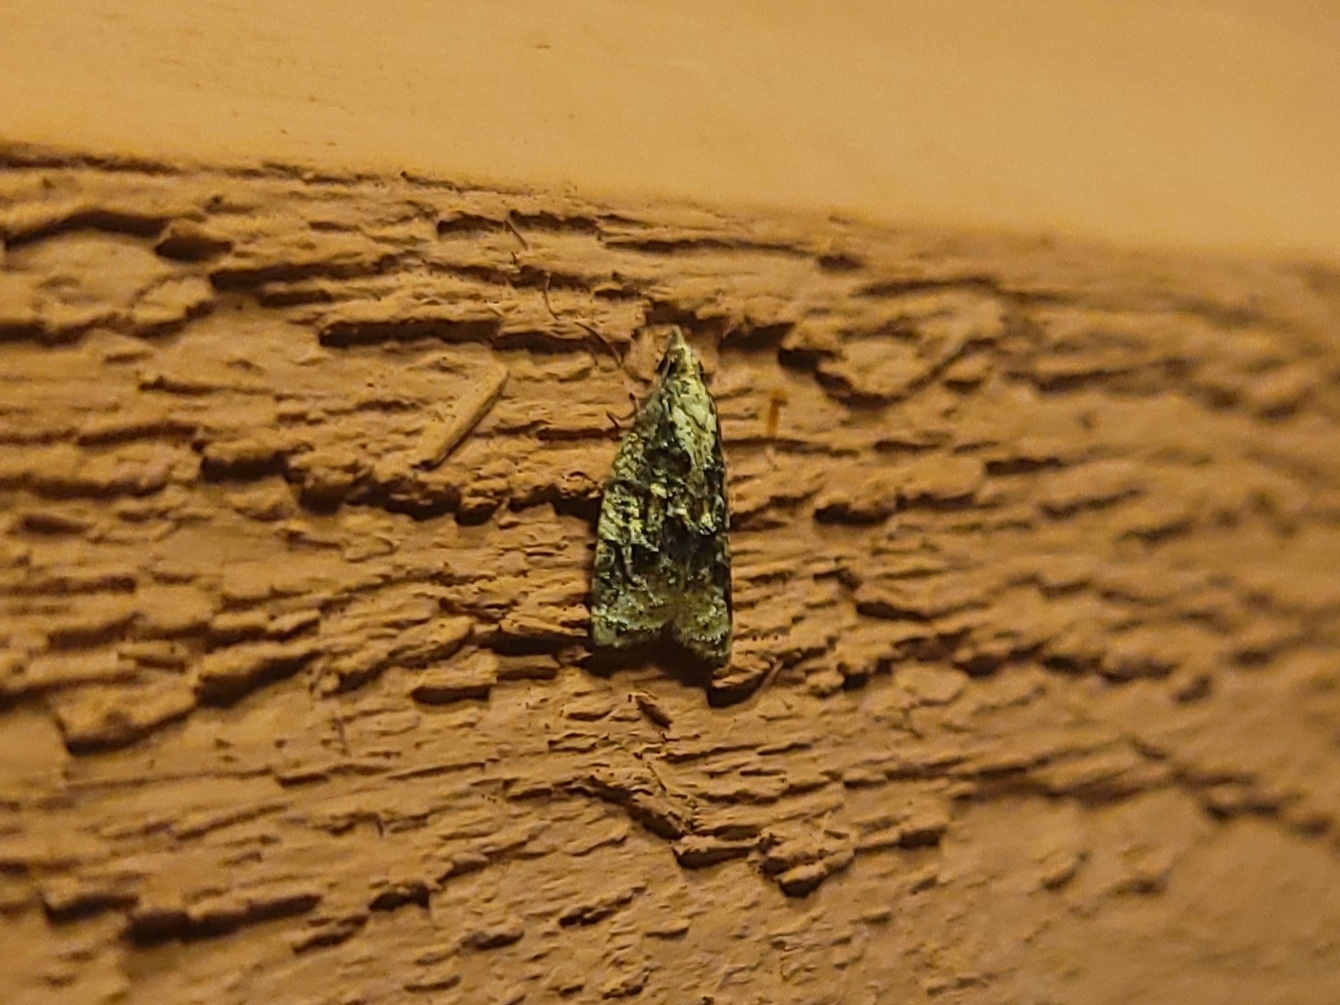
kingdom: Animalia
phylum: Arthropoda
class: Insecta
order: Lepidoptera
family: Tortricidae
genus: Platynota
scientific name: Platynota exasperatana
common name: Exasperating platynota moth
